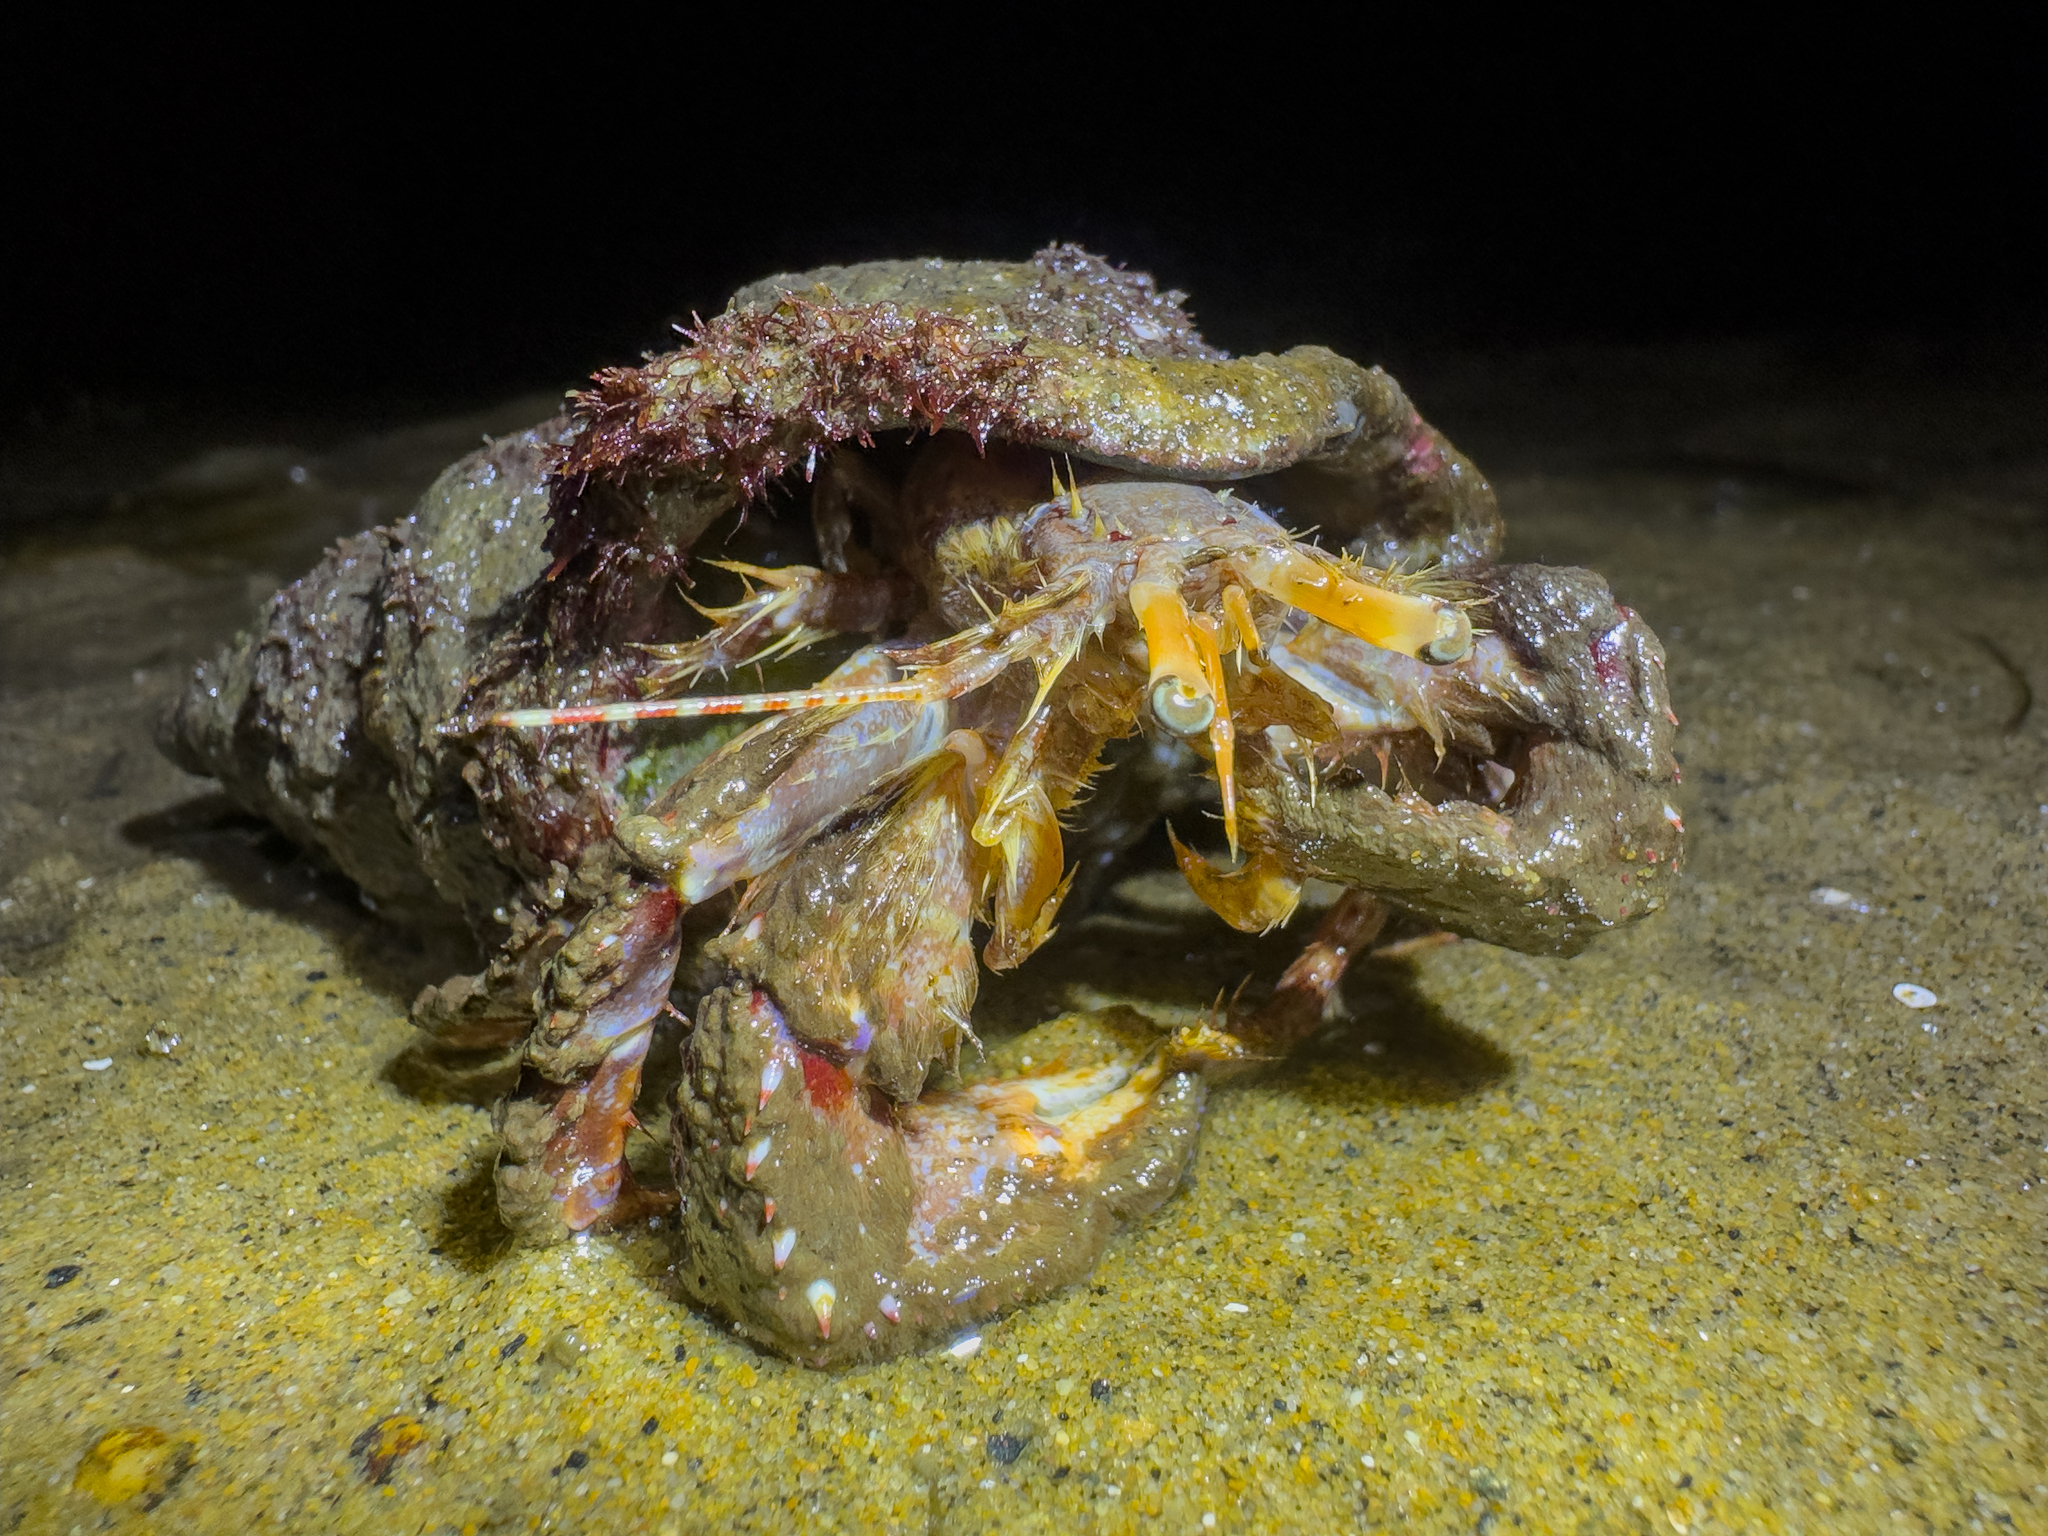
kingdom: Animalia
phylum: Arthropoda
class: Malacostraca
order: Decapoda
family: Paguridae
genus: Diacanthurus
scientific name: Diacanthurus spinulimanus
